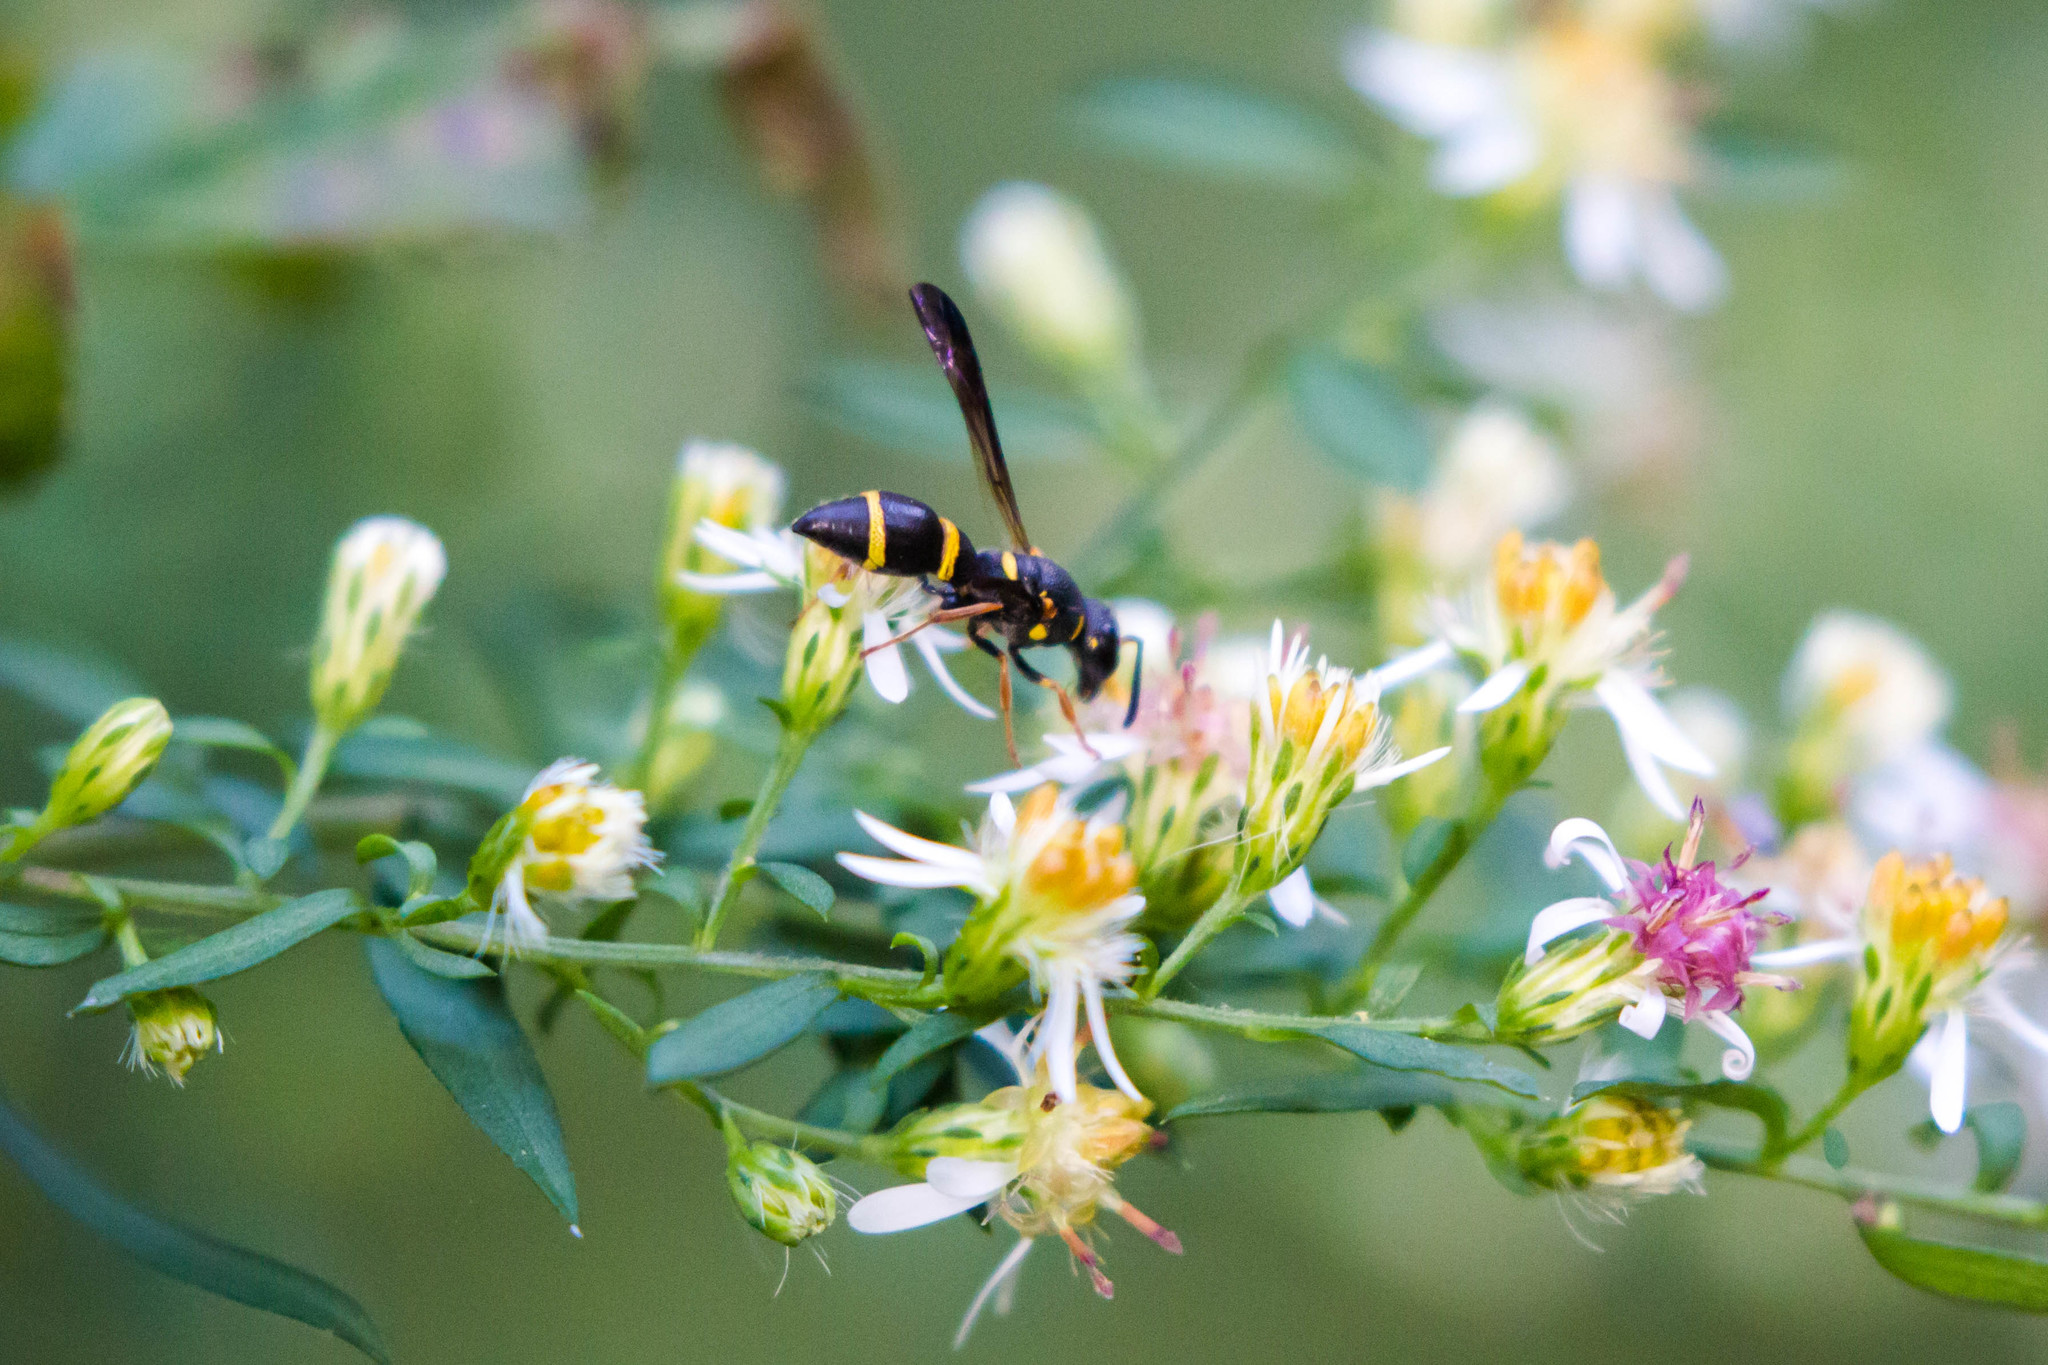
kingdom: Animalia
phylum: Arthropoda
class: Insecta
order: Hymenoptera
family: Eumenidae
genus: Parancistrocerus
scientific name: Parancistrocerus perennis
